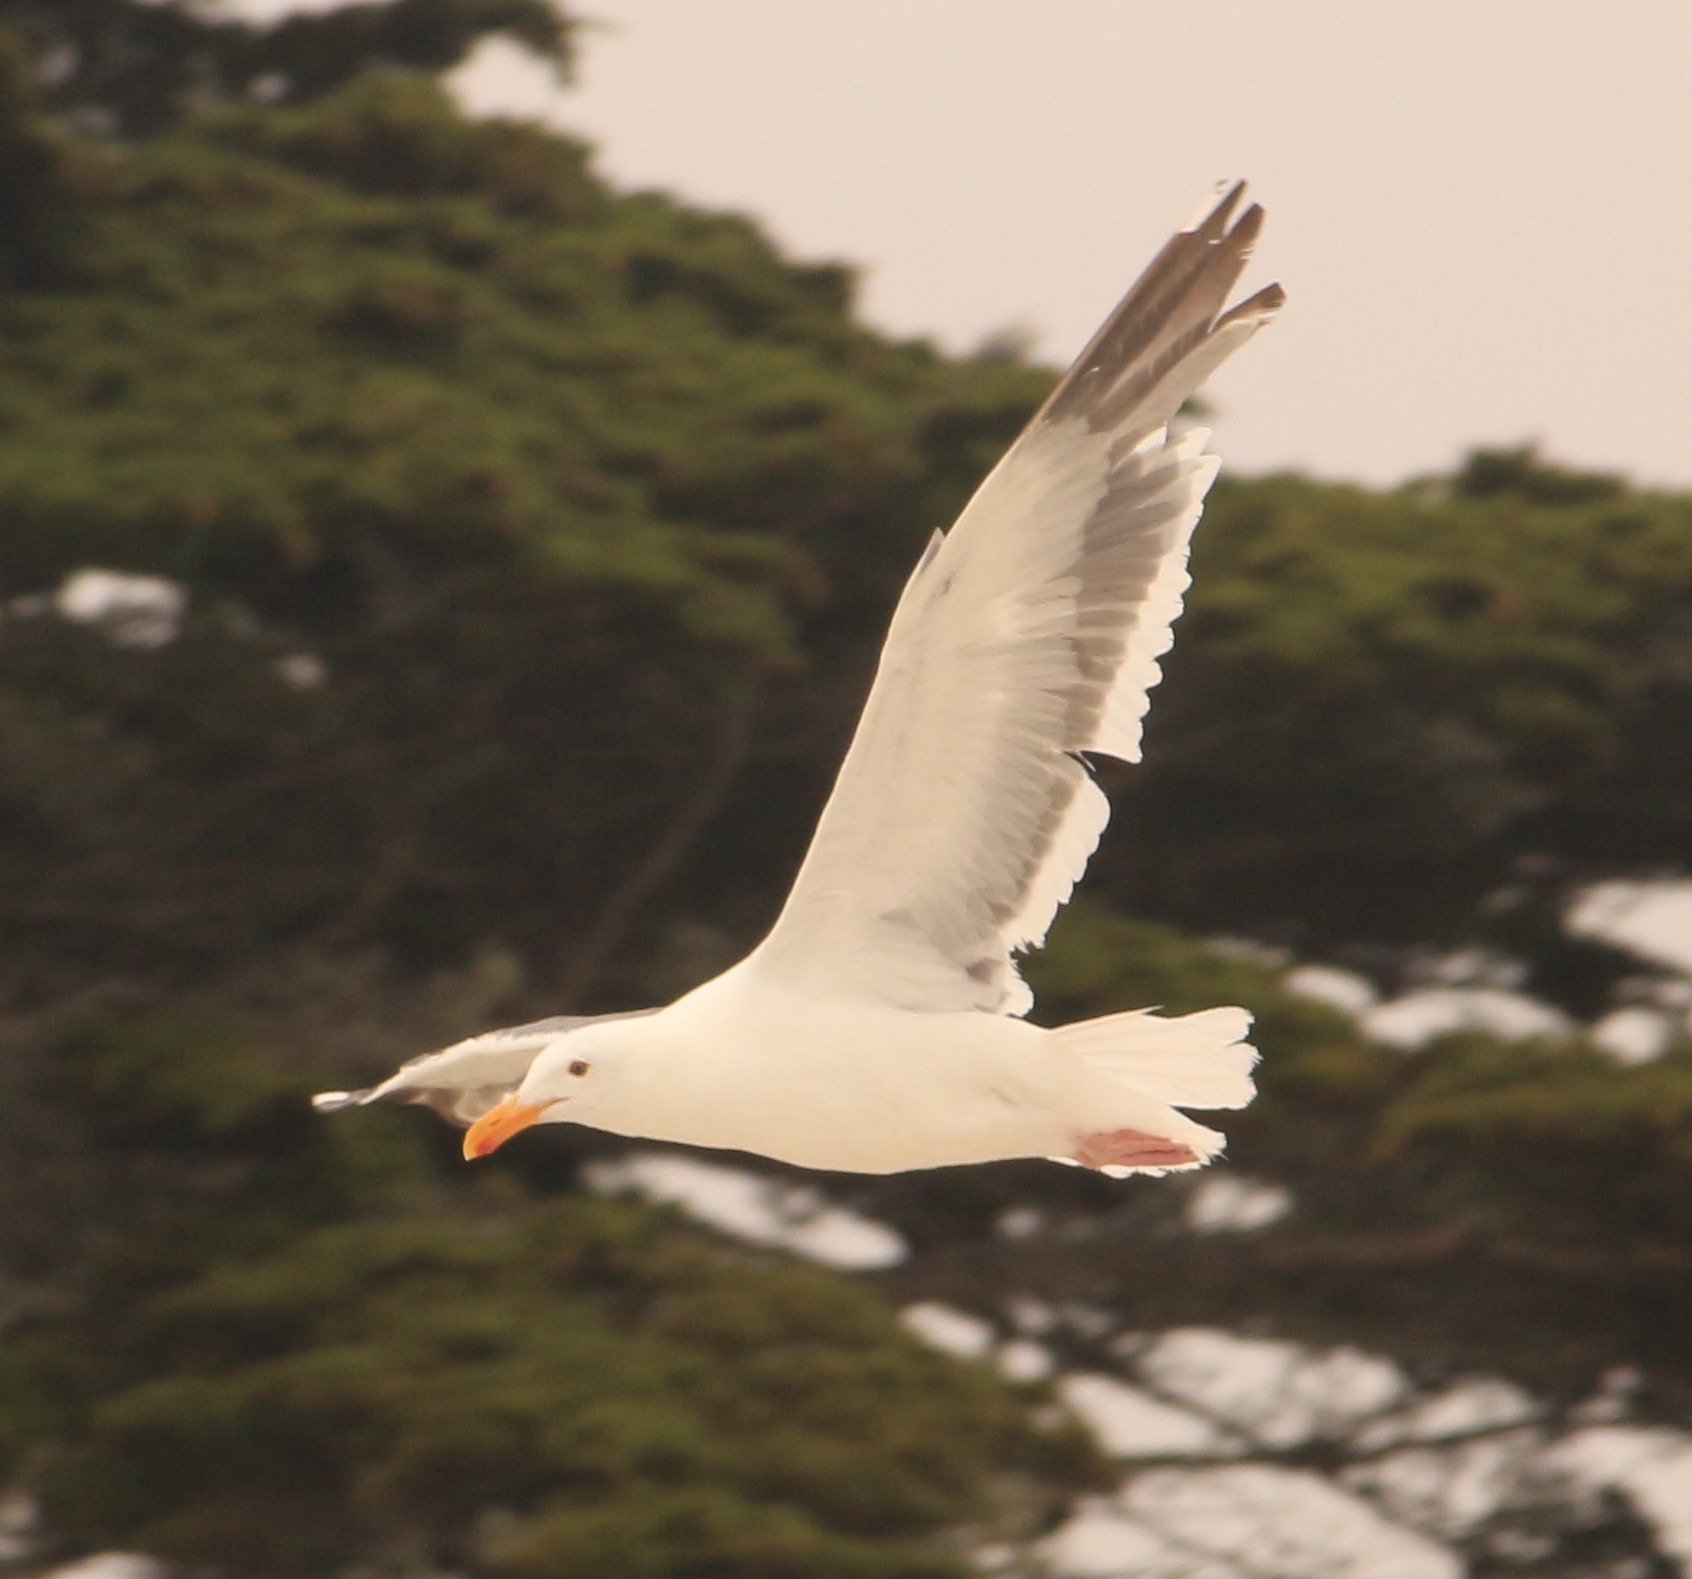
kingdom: Animalia
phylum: Chordata
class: Aves
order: Charadriiformes
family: Laridae
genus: Larus
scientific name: Larus occidentalis
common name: Western gull
